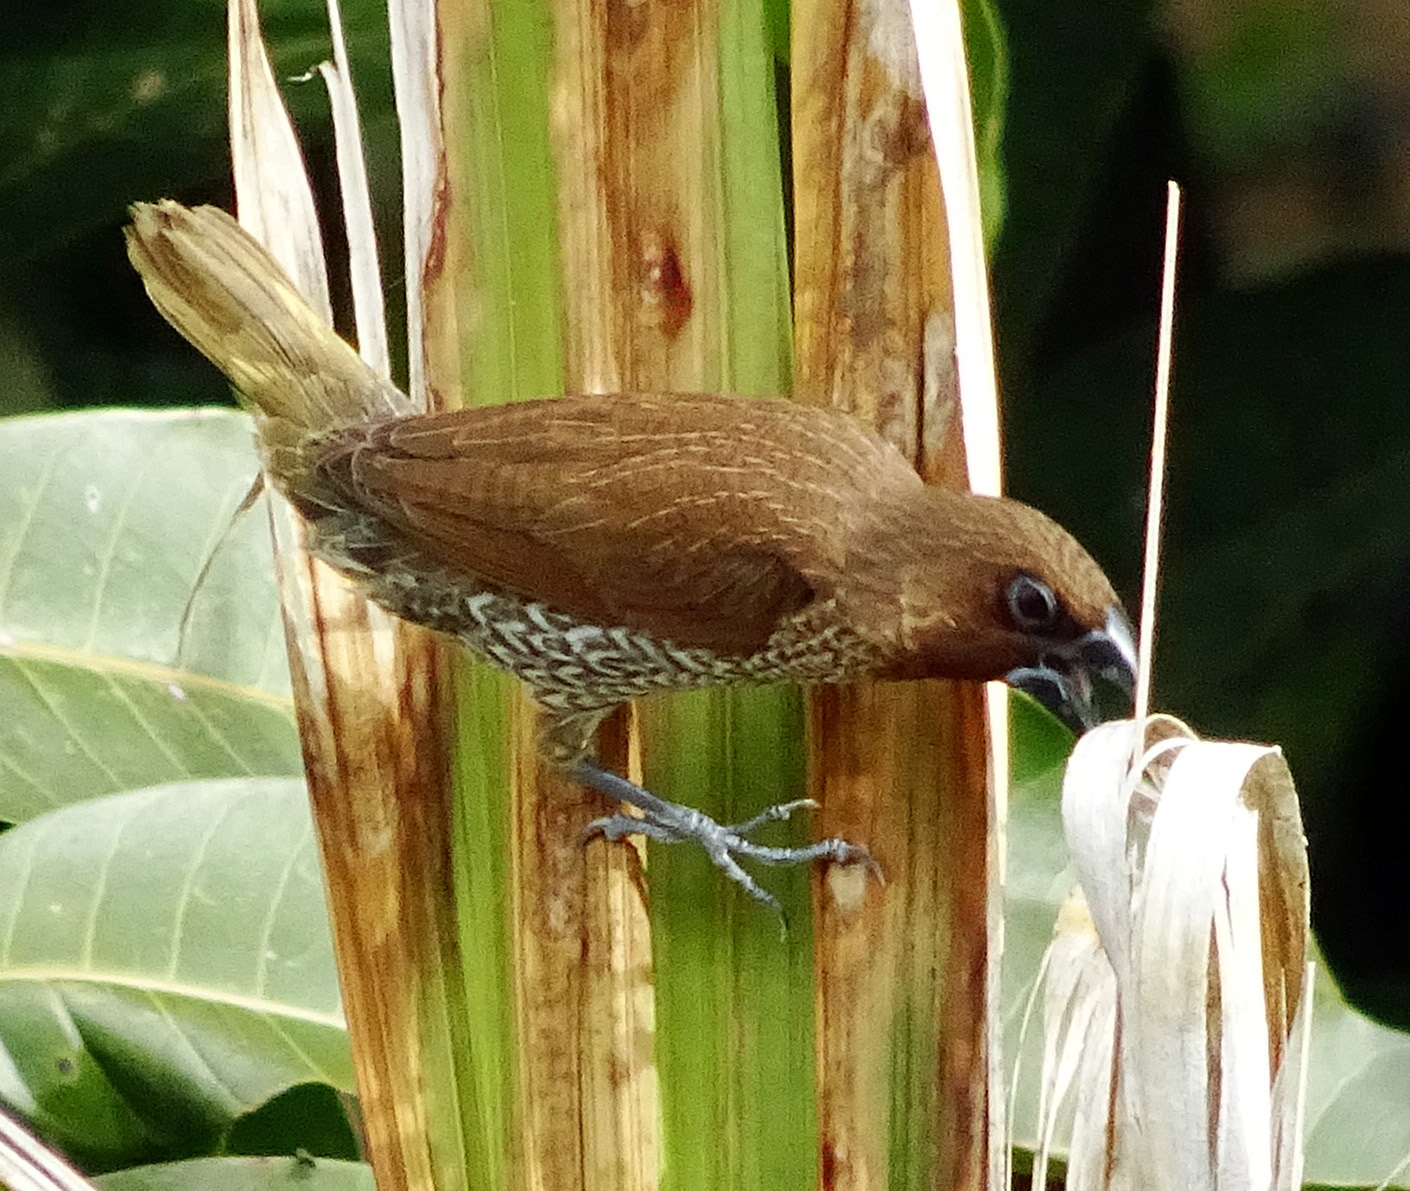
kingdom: Animalia
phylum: Chordata
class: Aves
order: Passeriformes
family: Estrildidae
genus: Lonchura
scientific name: Lonchura punctulata
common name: Scaly-breasted munia
